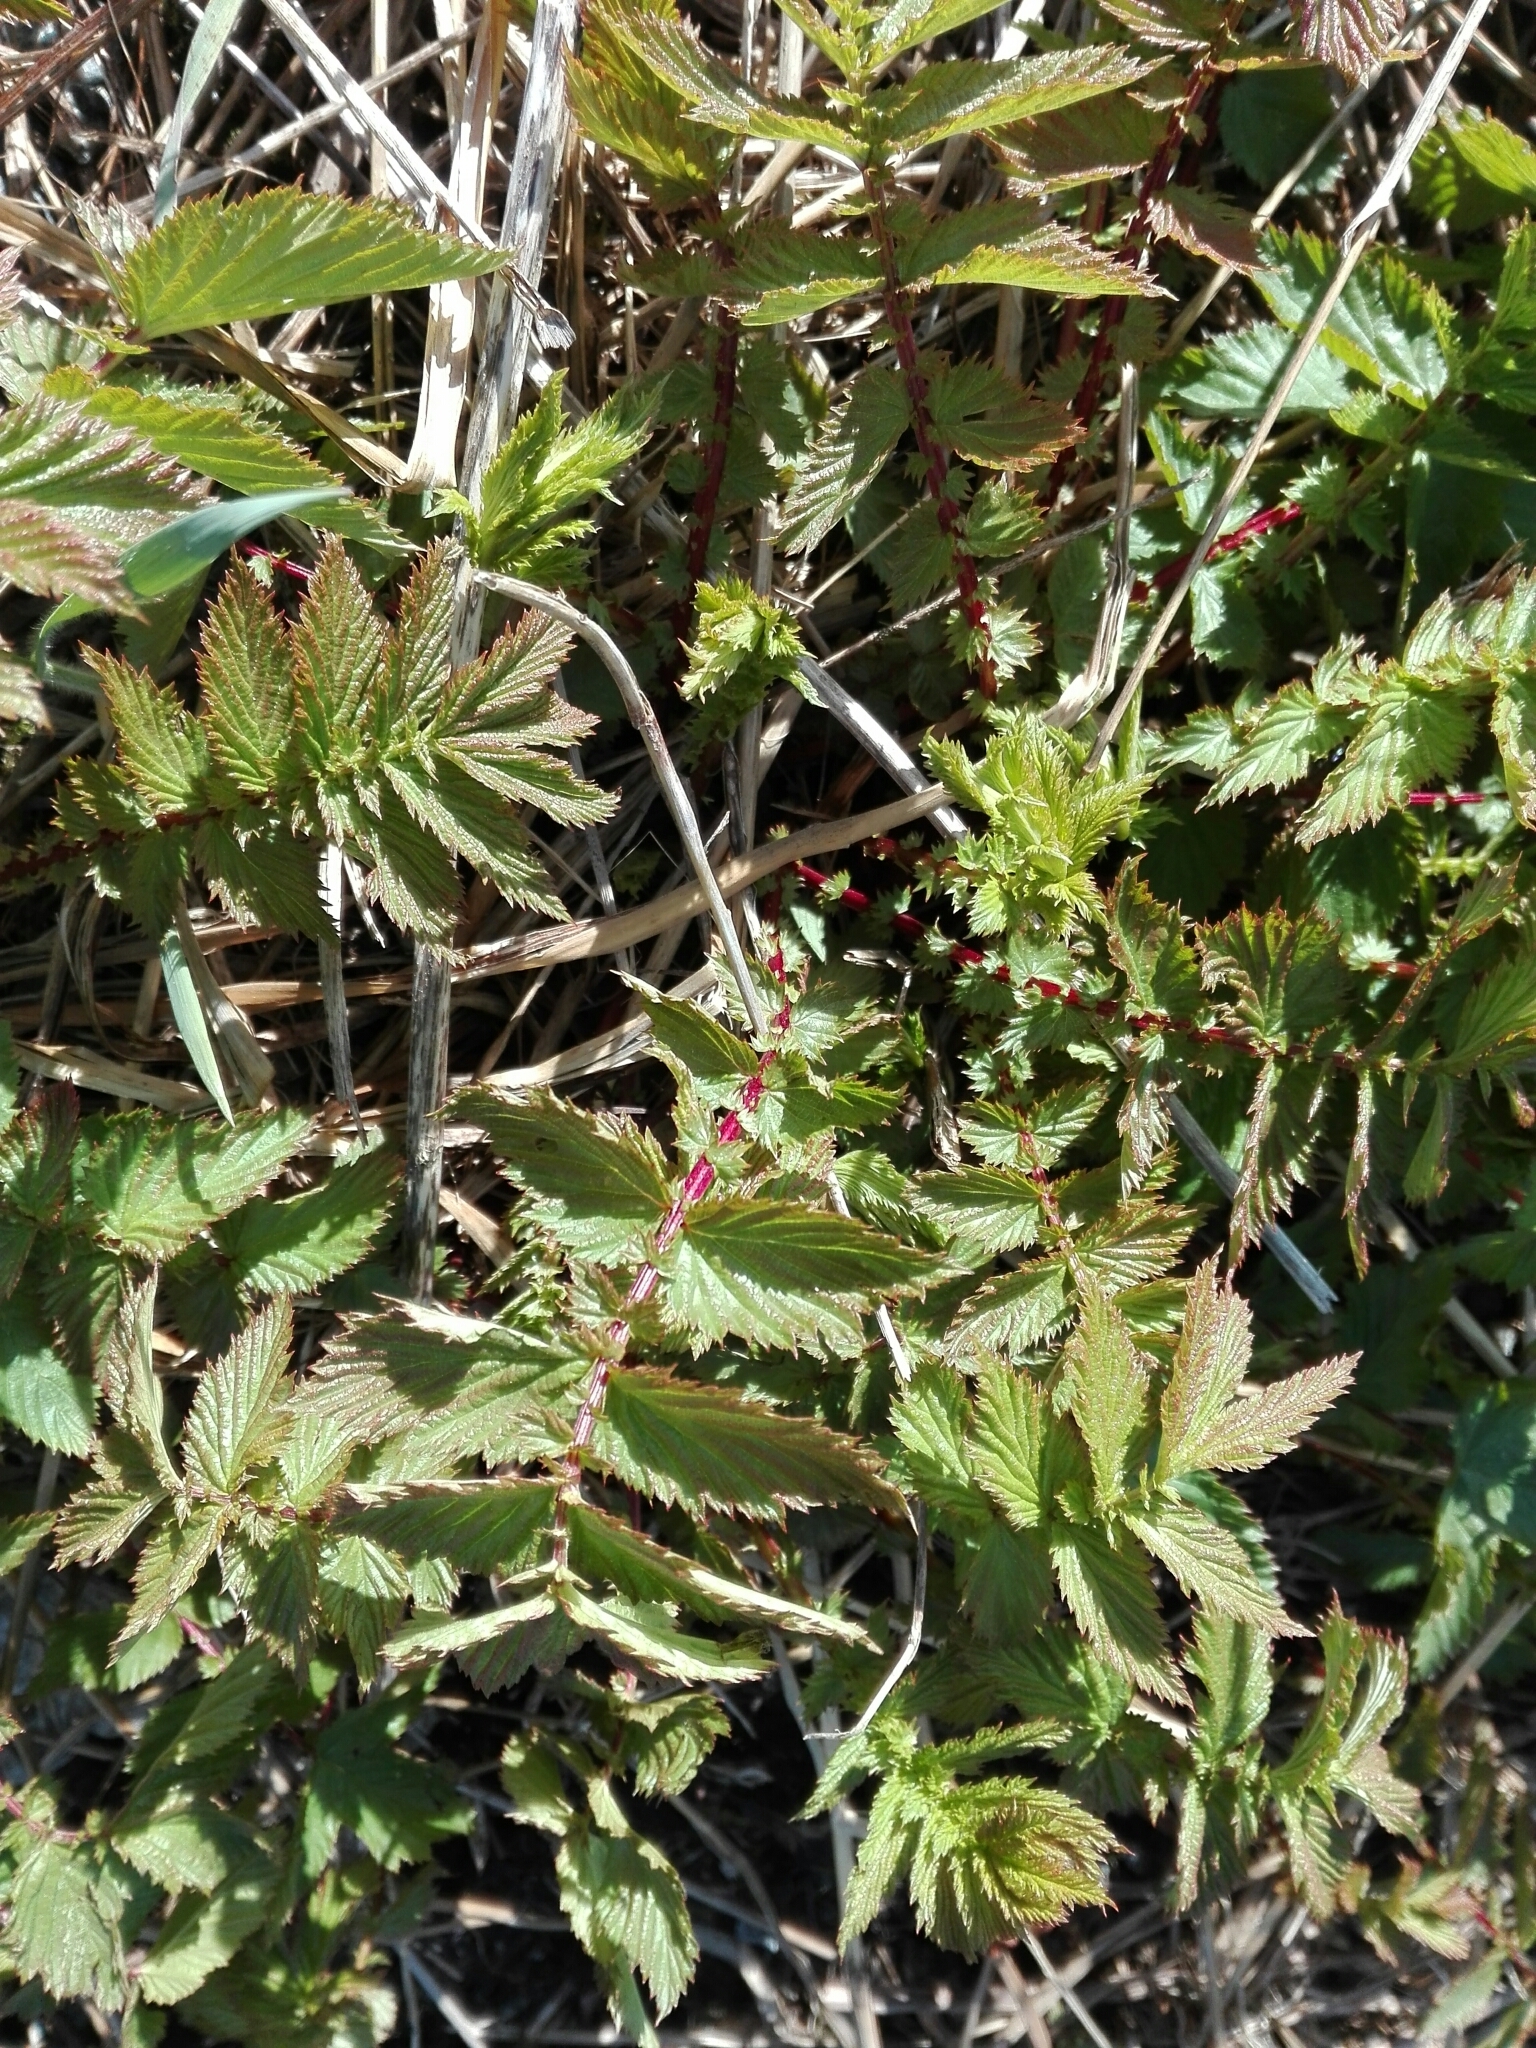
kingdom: Plantae
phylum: Tracheophyta
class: Magnoliopsida
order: Rosales
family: Rosaceae
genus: Filipendula
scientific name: Filipendula ulmaria
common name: Meadowsweet
